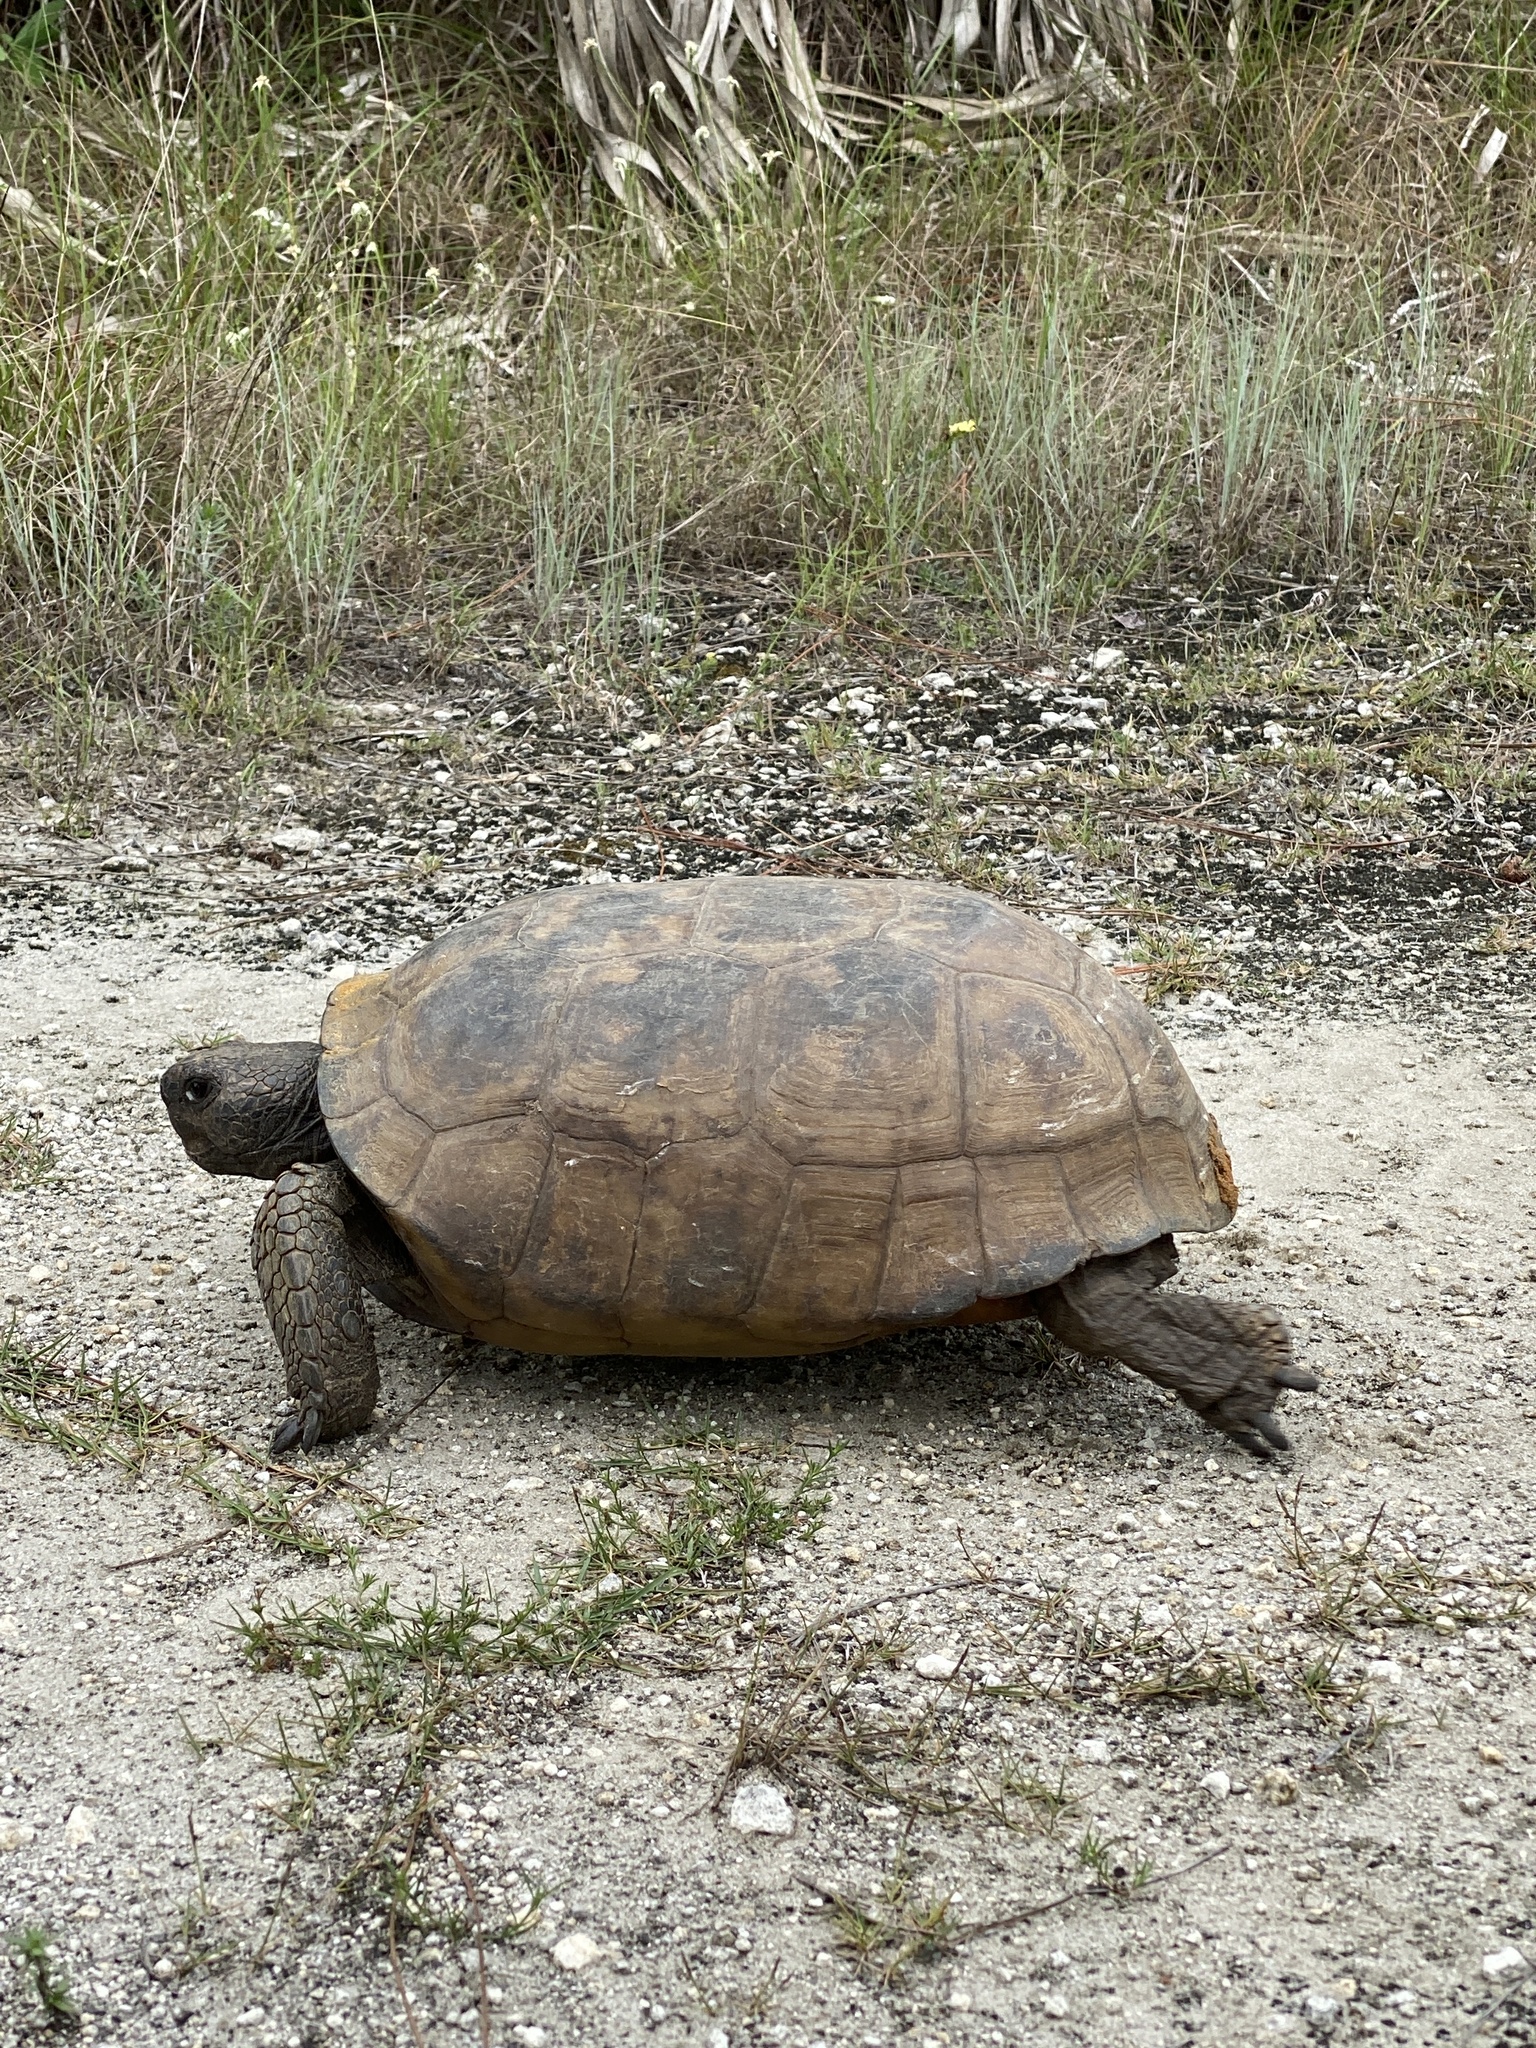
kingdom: Animalia
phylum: Chordata
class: Testudines
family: Testudinidae
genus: Gopherus
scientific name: Gopherus polyphemus
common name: Florida gopher tortoise
